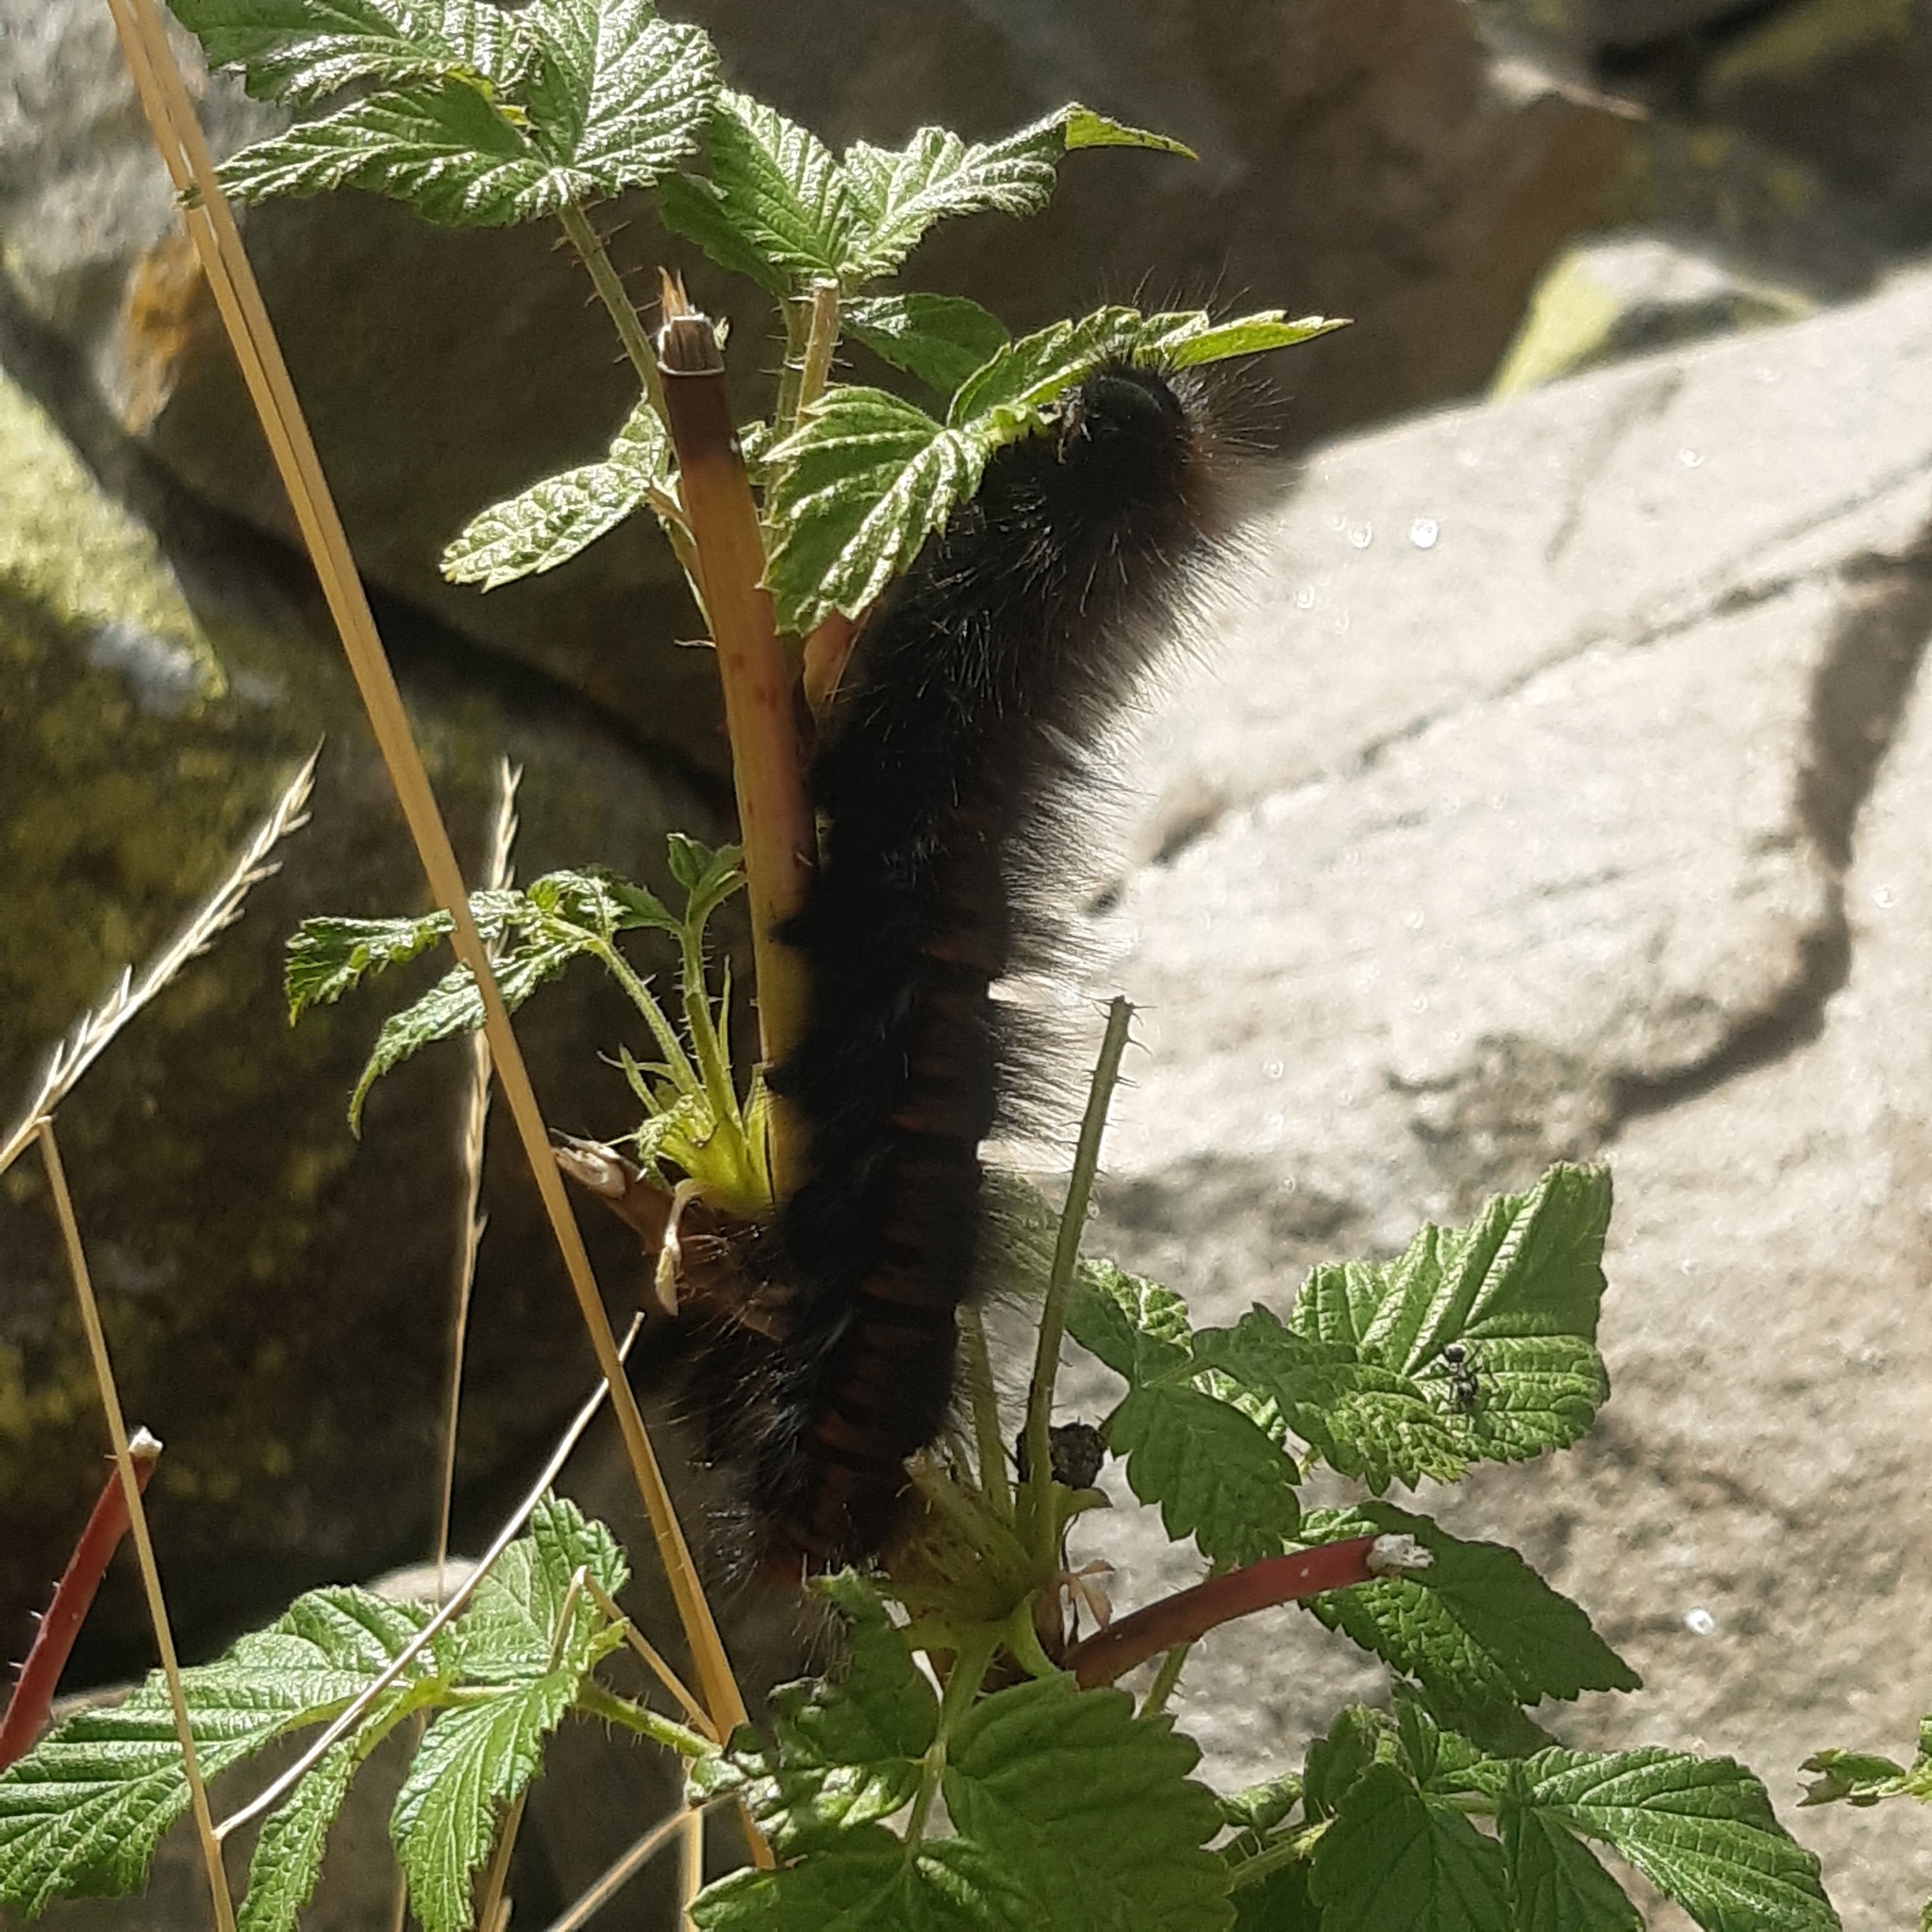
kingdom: Animalia
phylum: Arthropoda
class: Insecta
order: Lepidoptera
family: Lasiocampidae
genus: Macrothylacia
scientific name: Macrothylacia rubi
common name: Fox moth
